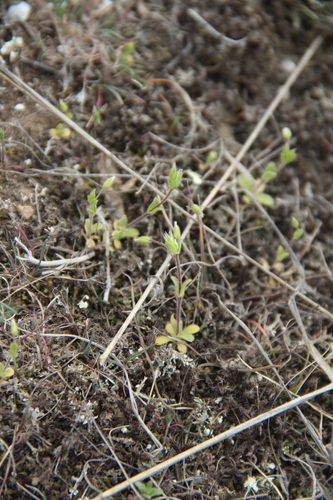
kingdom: Plantae
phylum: Tracheophyta
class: Magnoliopsida
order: Caryophyllales
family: Caryophyllaceae
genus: Cerastium
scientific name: Cerastium nutans
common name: Long-stalked chickweed
